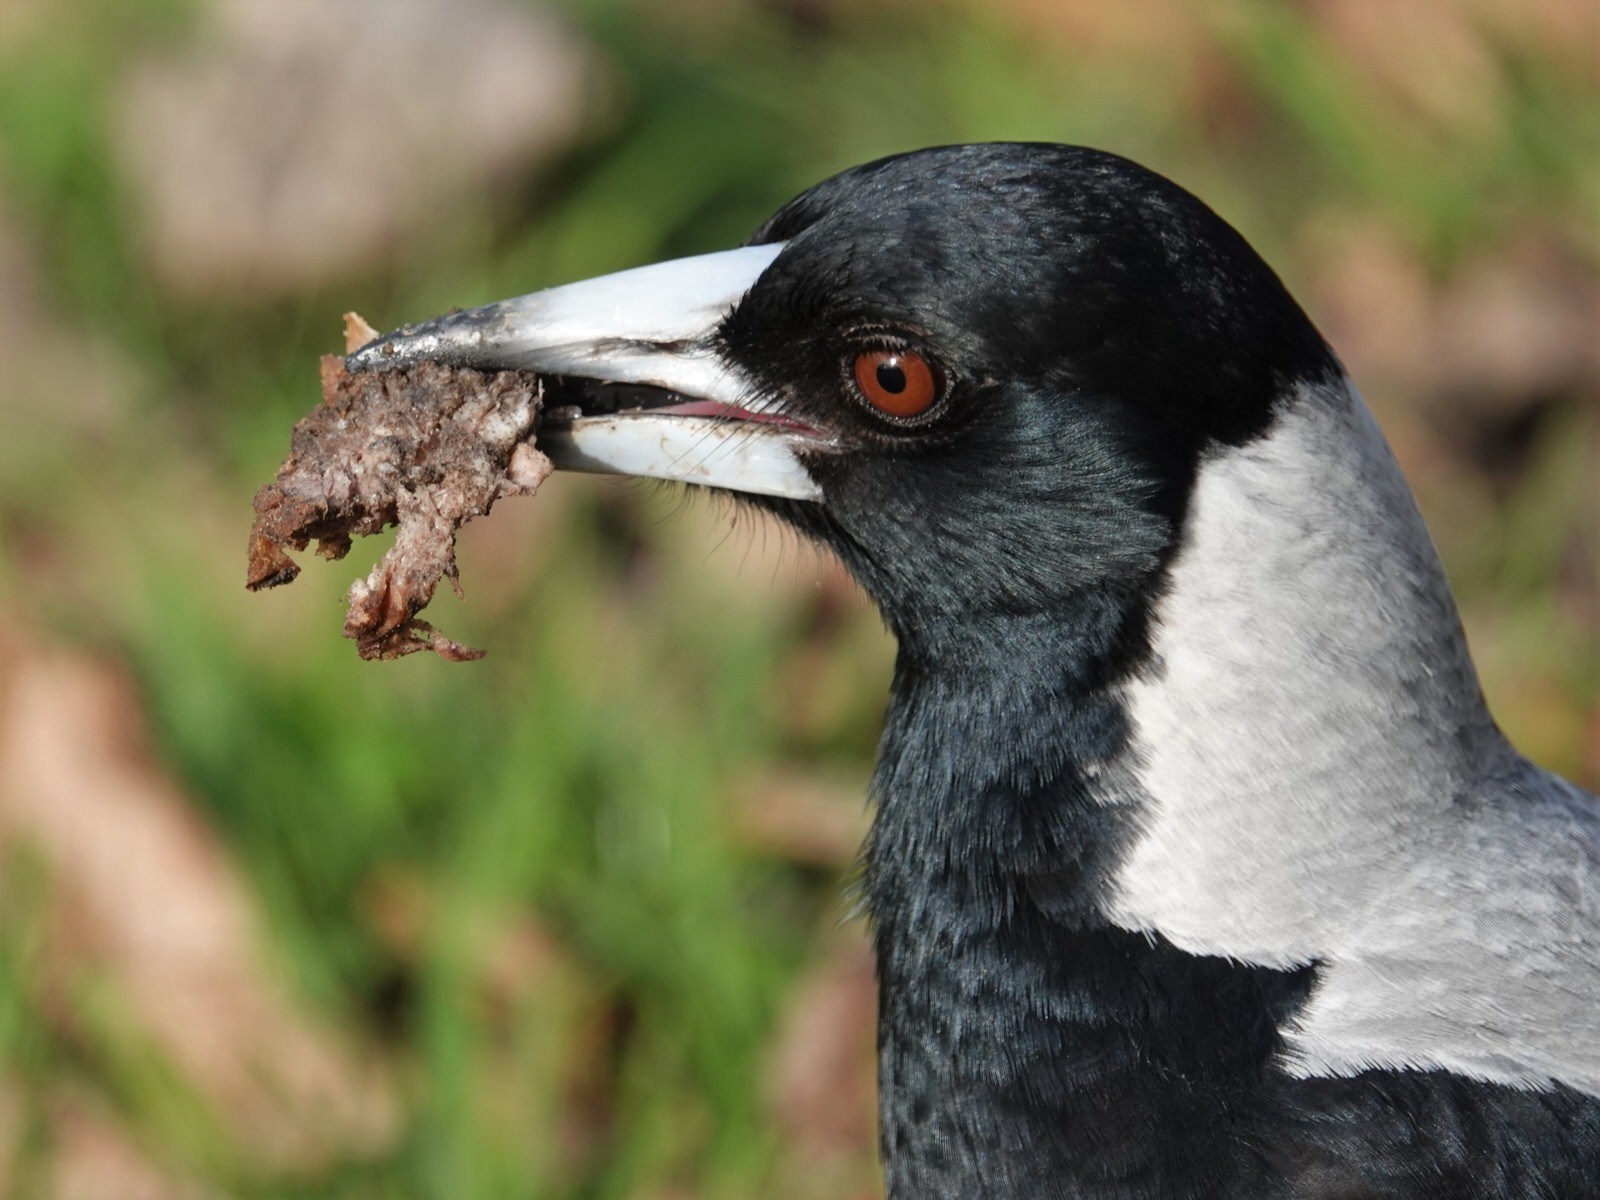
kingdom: Animalia
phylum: Chordata
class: Aves
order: Passeriformes
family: Cracticidae
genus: Gymnorhina
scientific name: Gymnorhina tibicen
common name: Australian magpie
